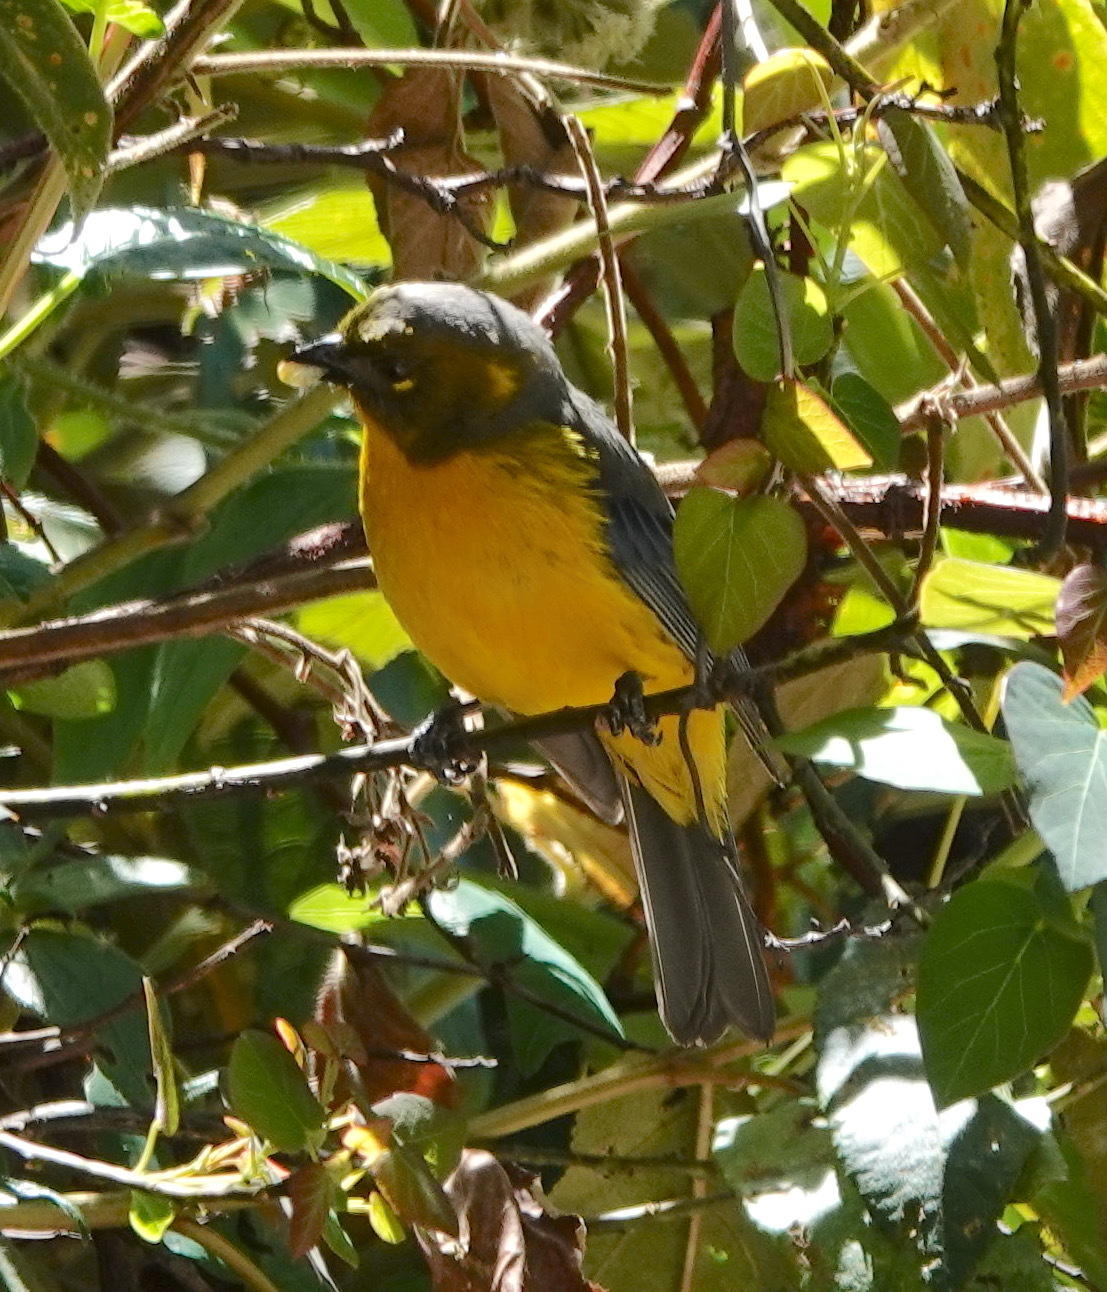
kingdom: Animalia
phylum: Chordata
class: Aves
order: Passeriformes
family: Thraupidae
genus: Anisognathus
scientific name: Anisognathus lacrymosus
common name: Lacrimose mountain-tanager
